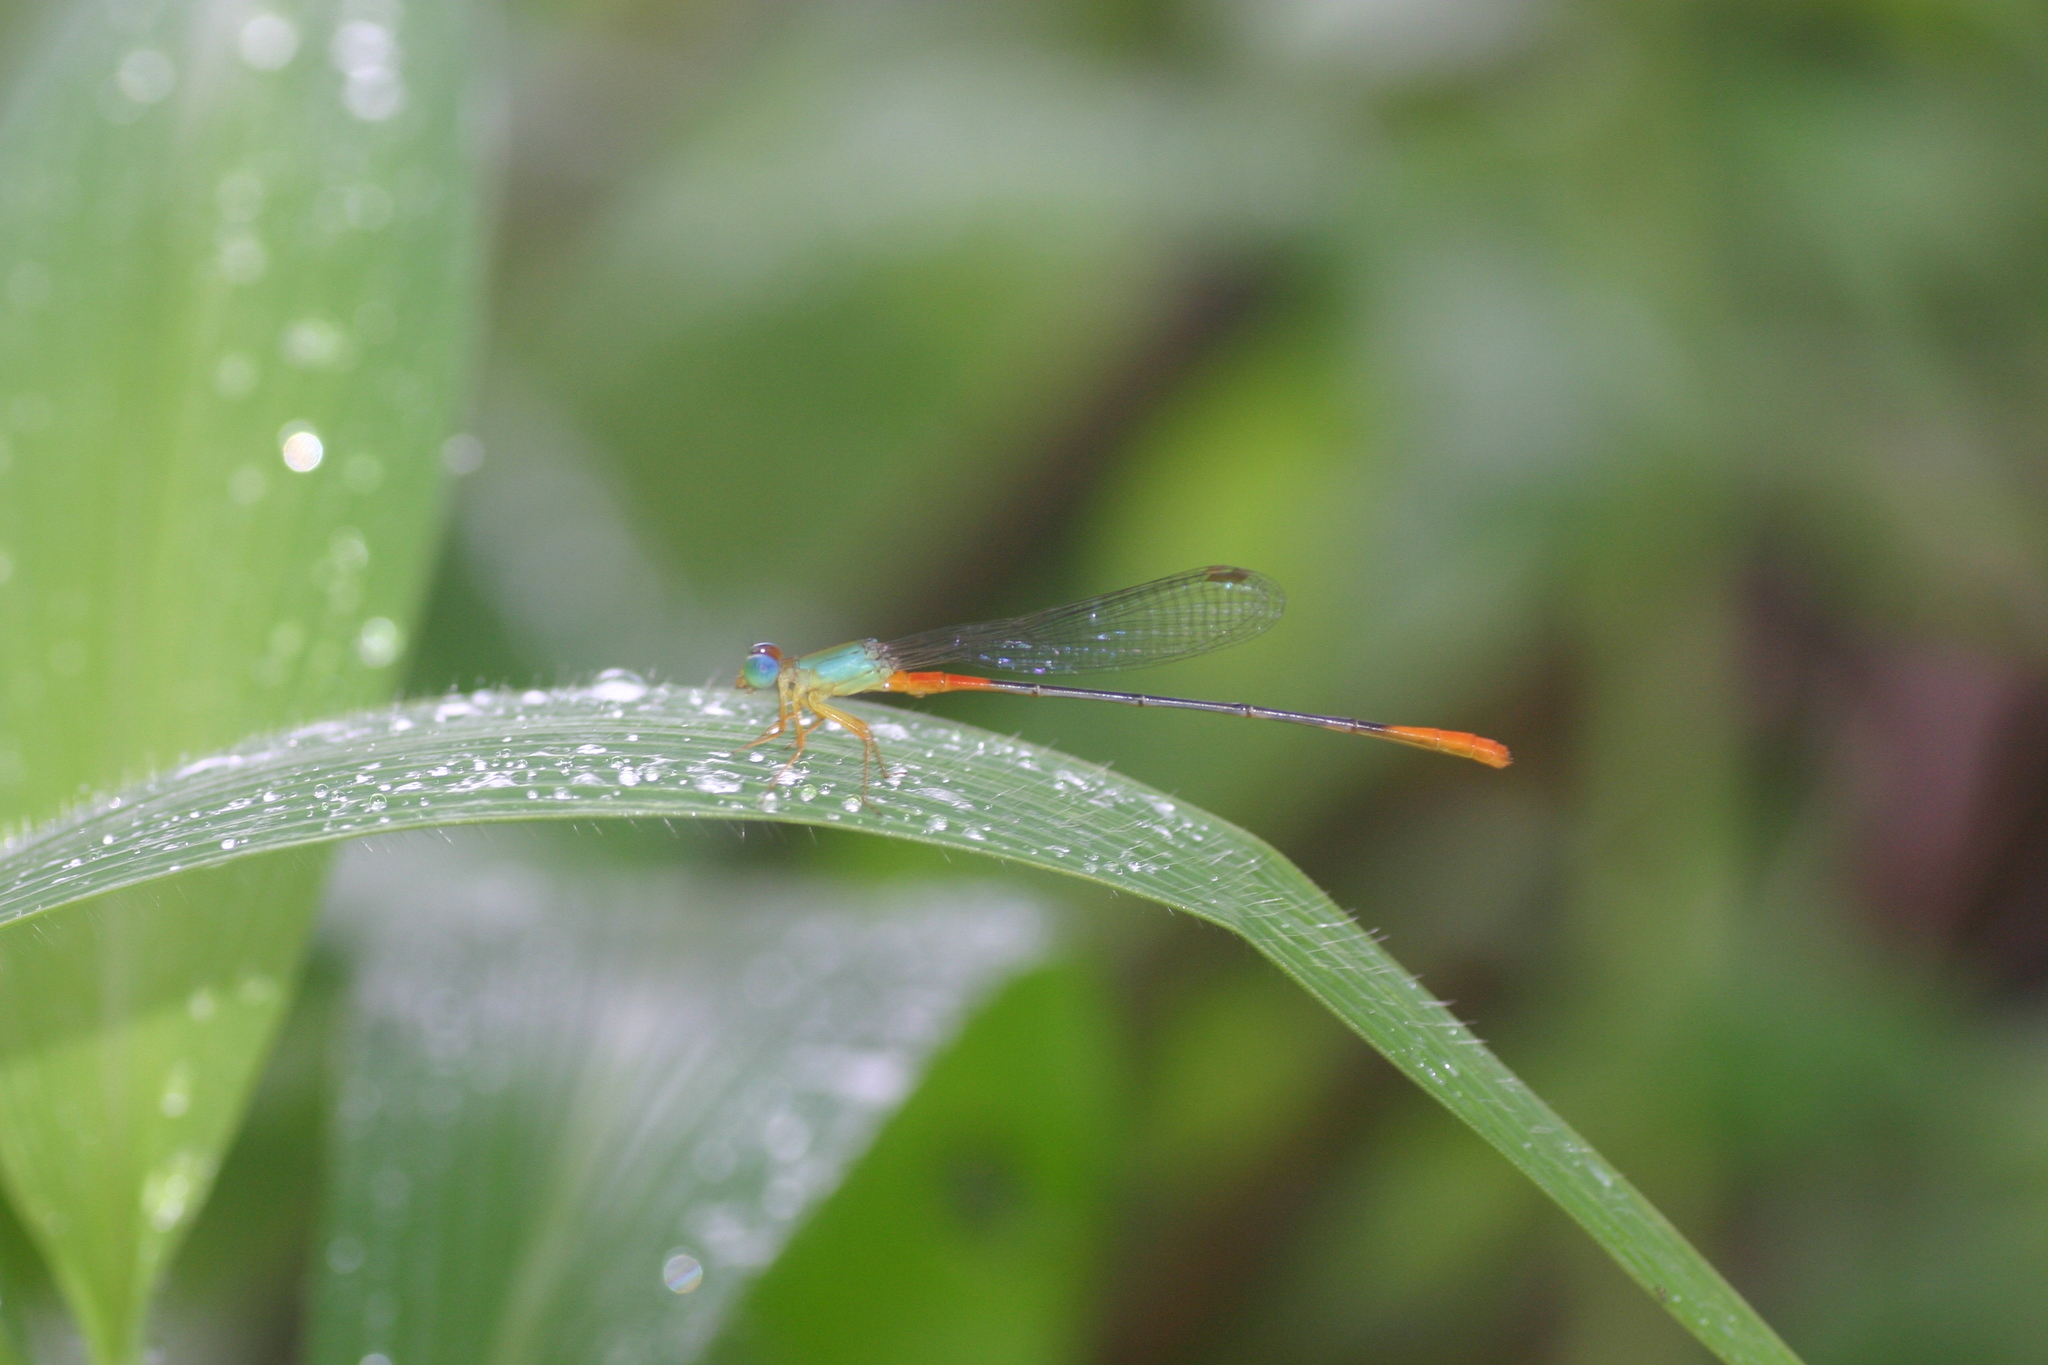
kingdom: Animalia
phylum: Arthropoda
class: Insecta
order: Odonata
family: Coenagrionidae
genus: Ceriagrion
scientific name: Ceriagrion cerinorubellum
